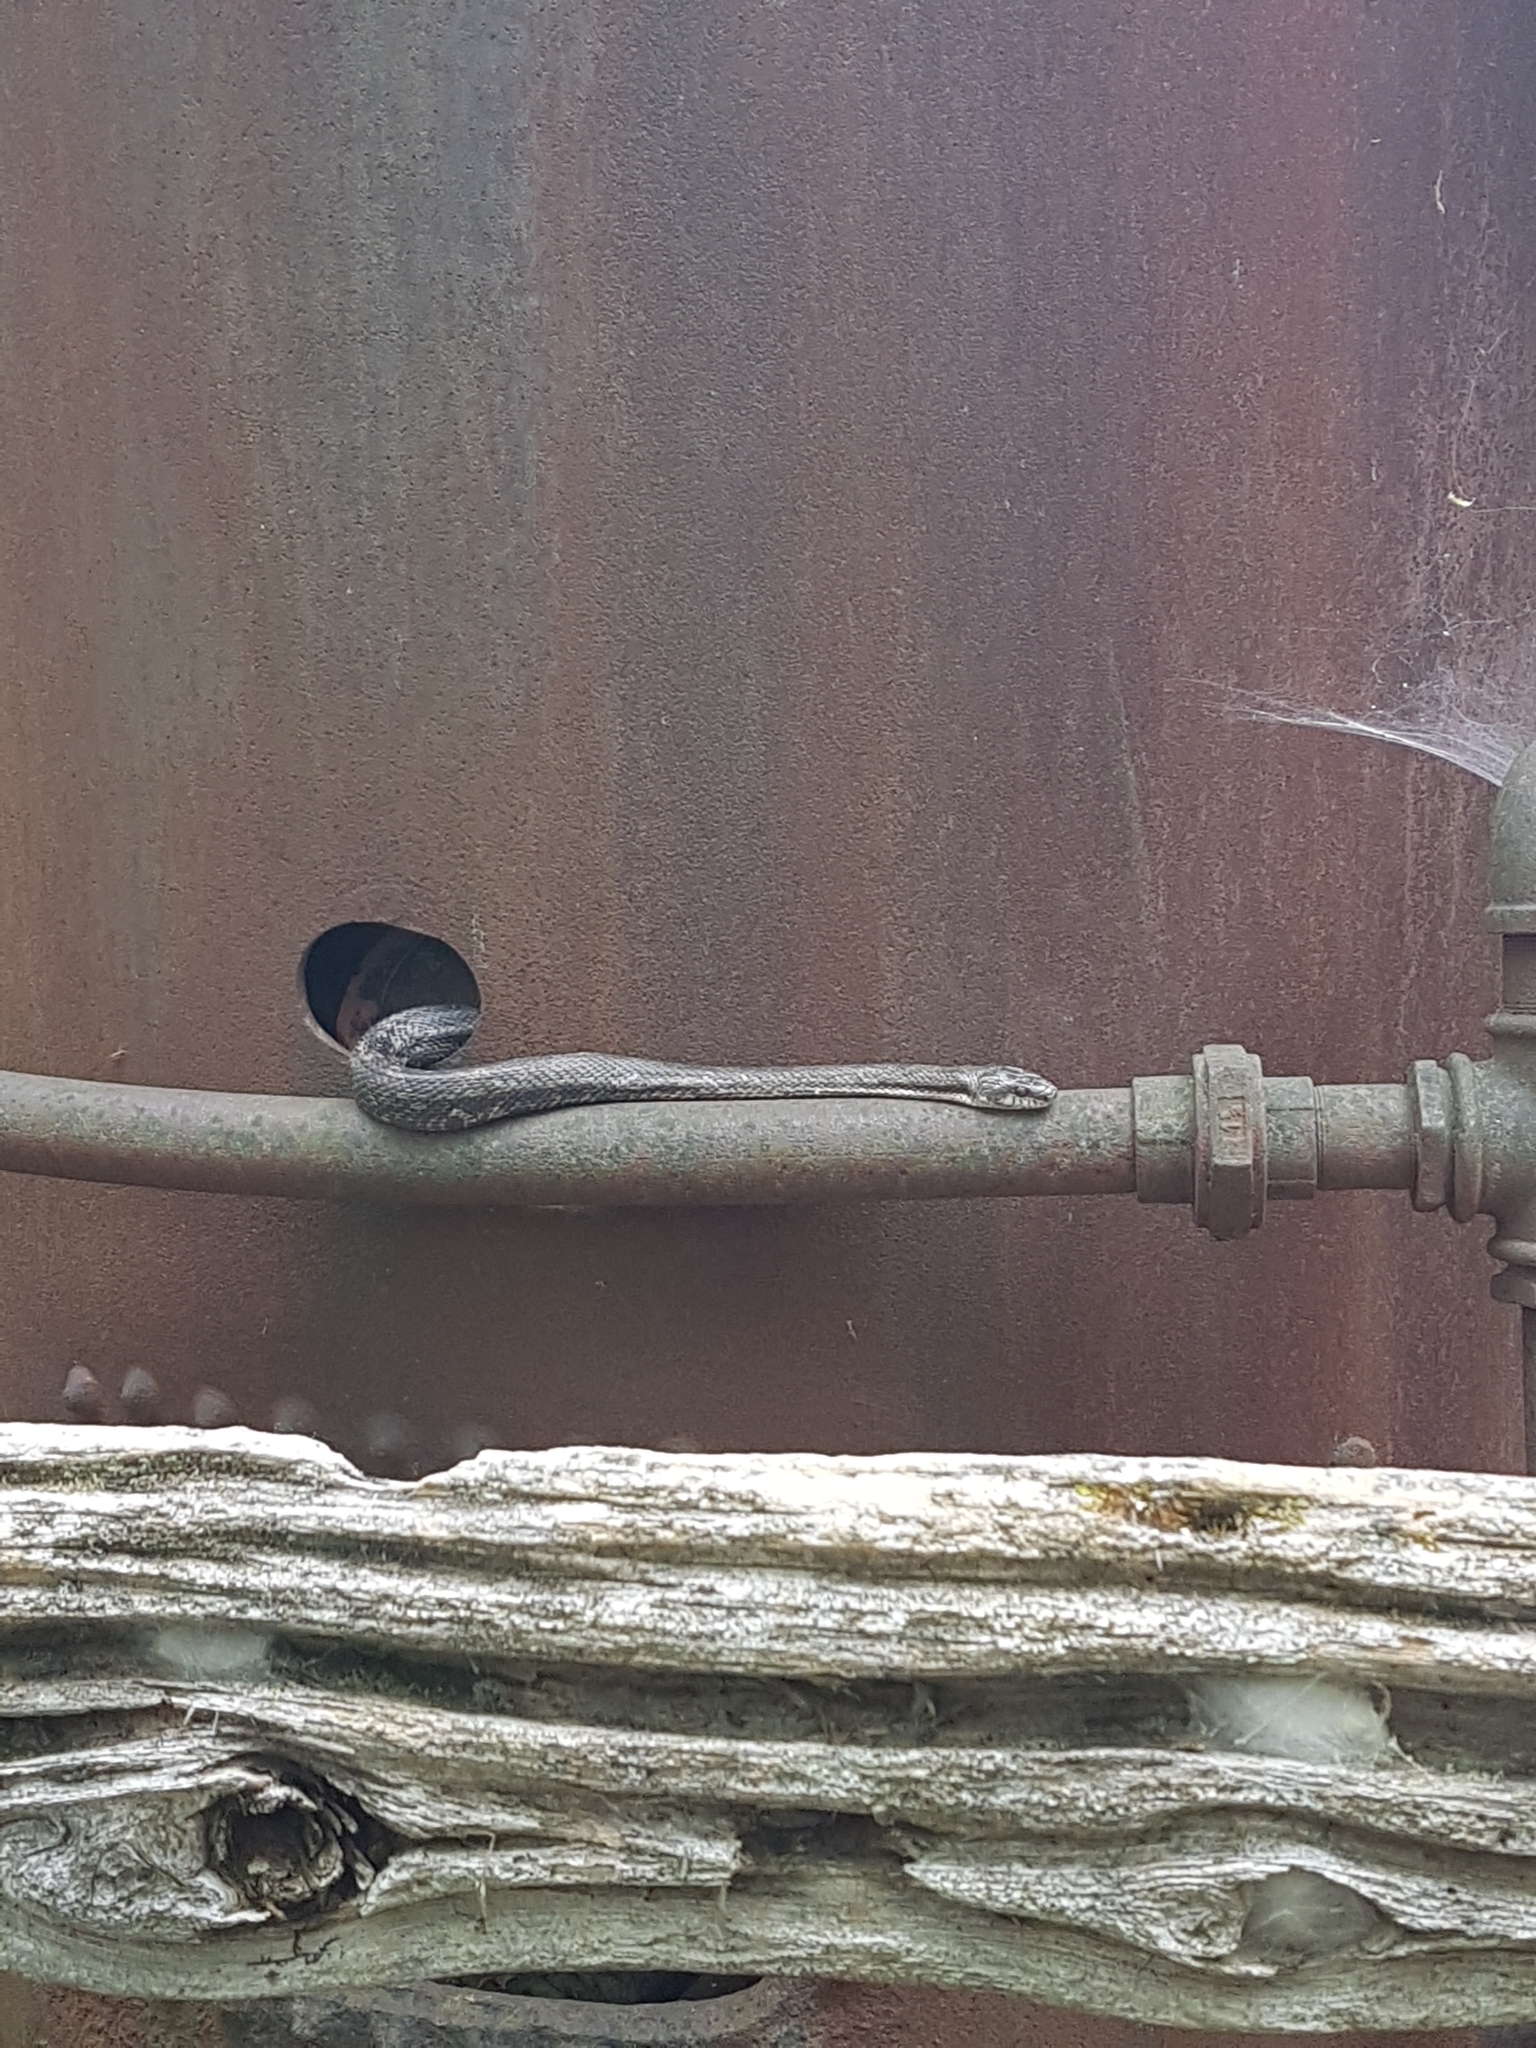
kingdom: Animalia
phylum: Chordata
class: Squamata
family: Colubridae
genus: Pantherophis
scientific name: Pantherophis spiloides
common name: Gray rat snake
